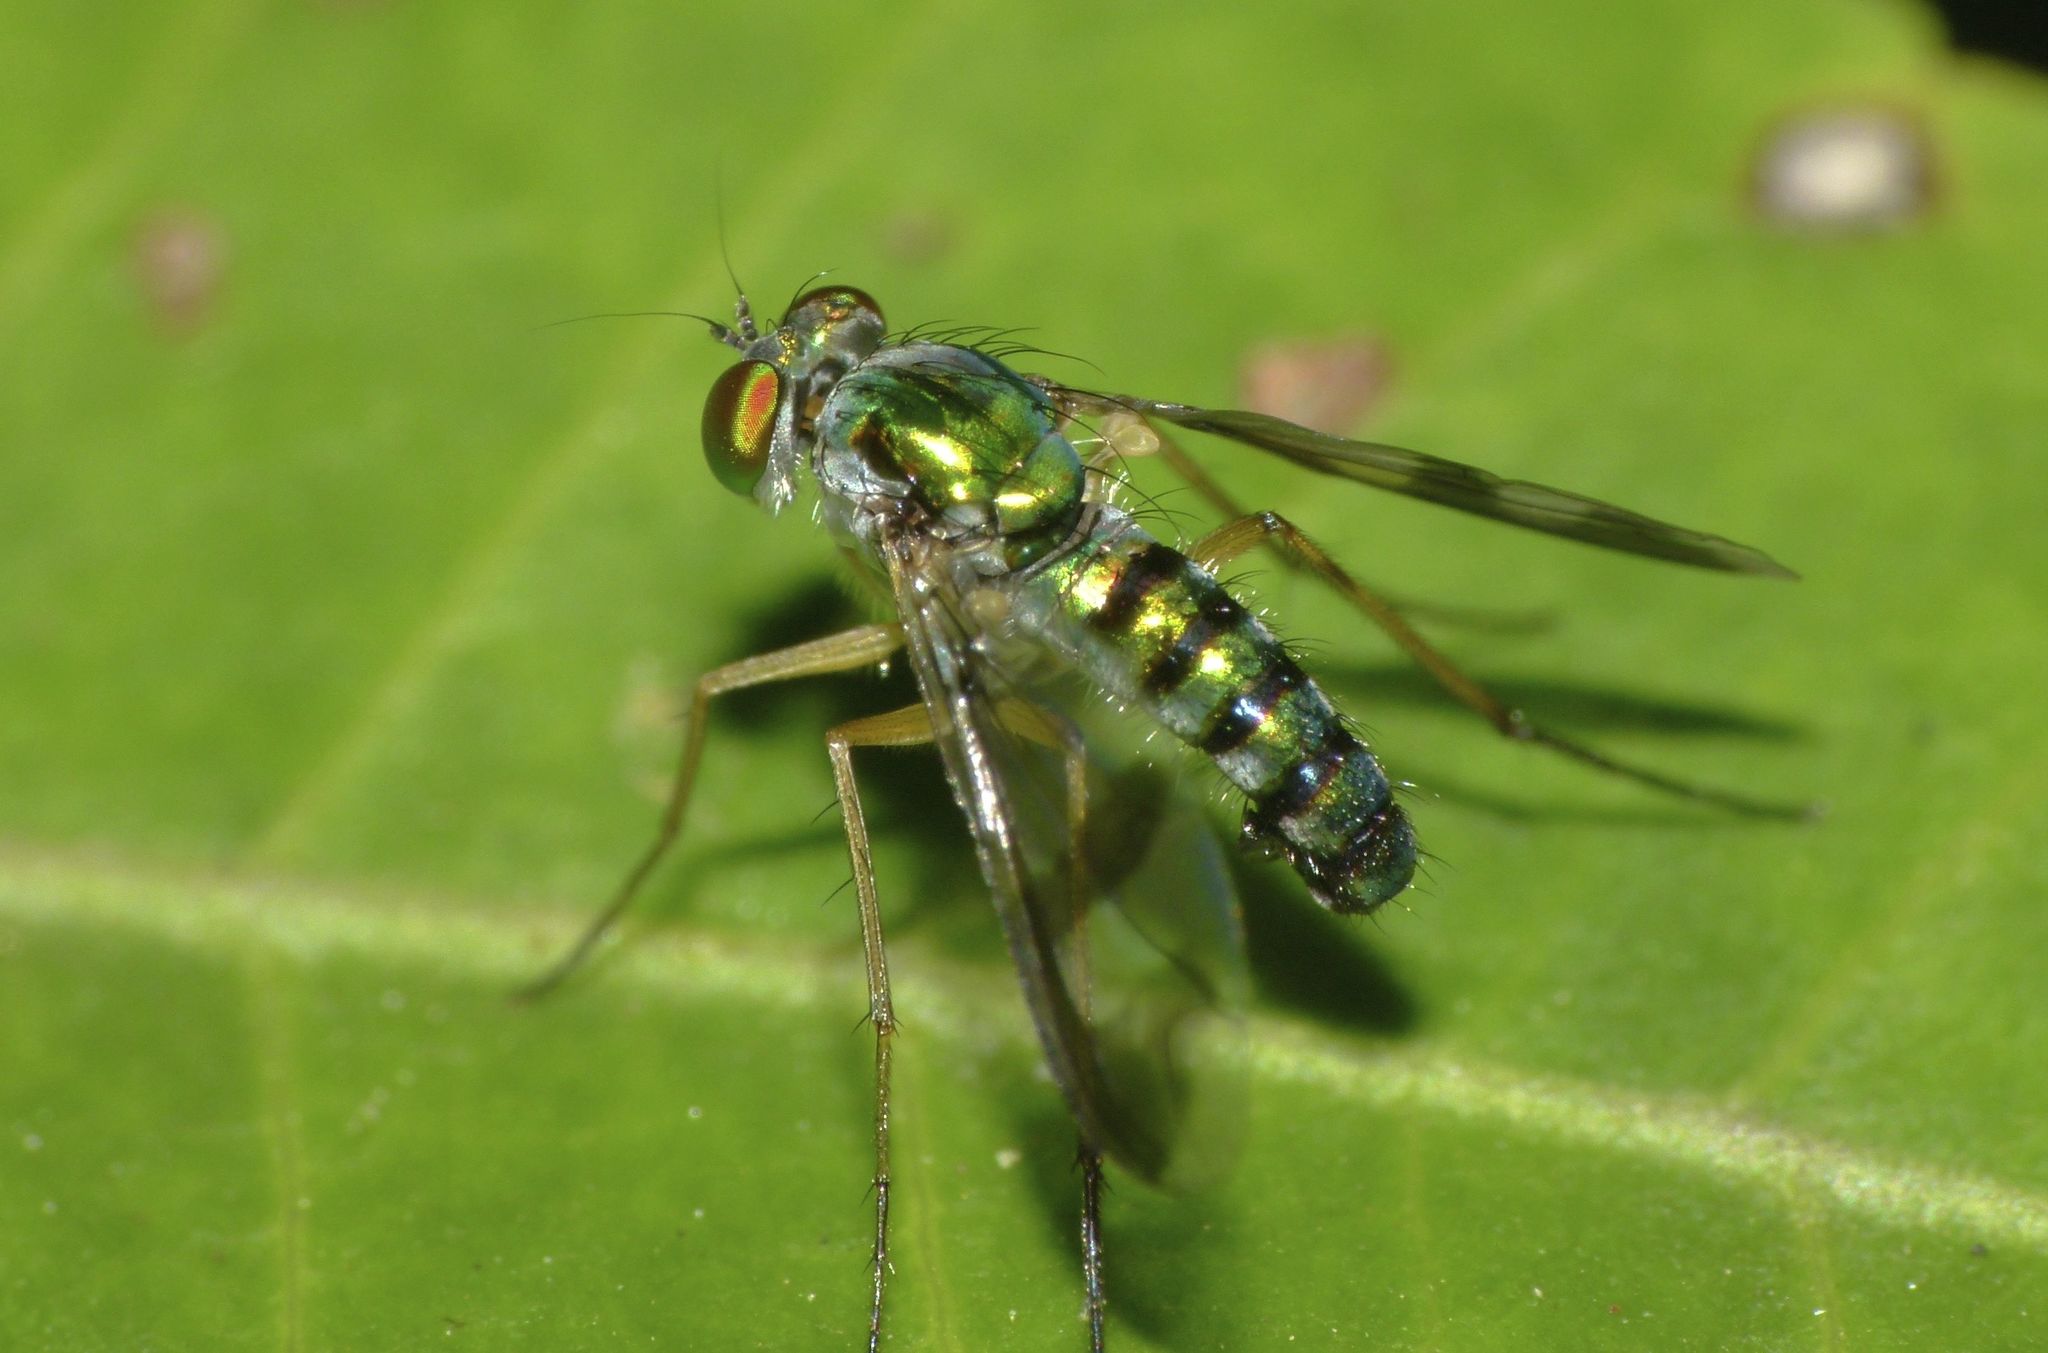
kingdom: Animalia
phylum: Arthropoda
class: Insecta
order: Diptera
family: Dolichopodidae
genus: Austrosciapus
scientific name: Austrosciapus connexus
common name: Green long-legged fly
